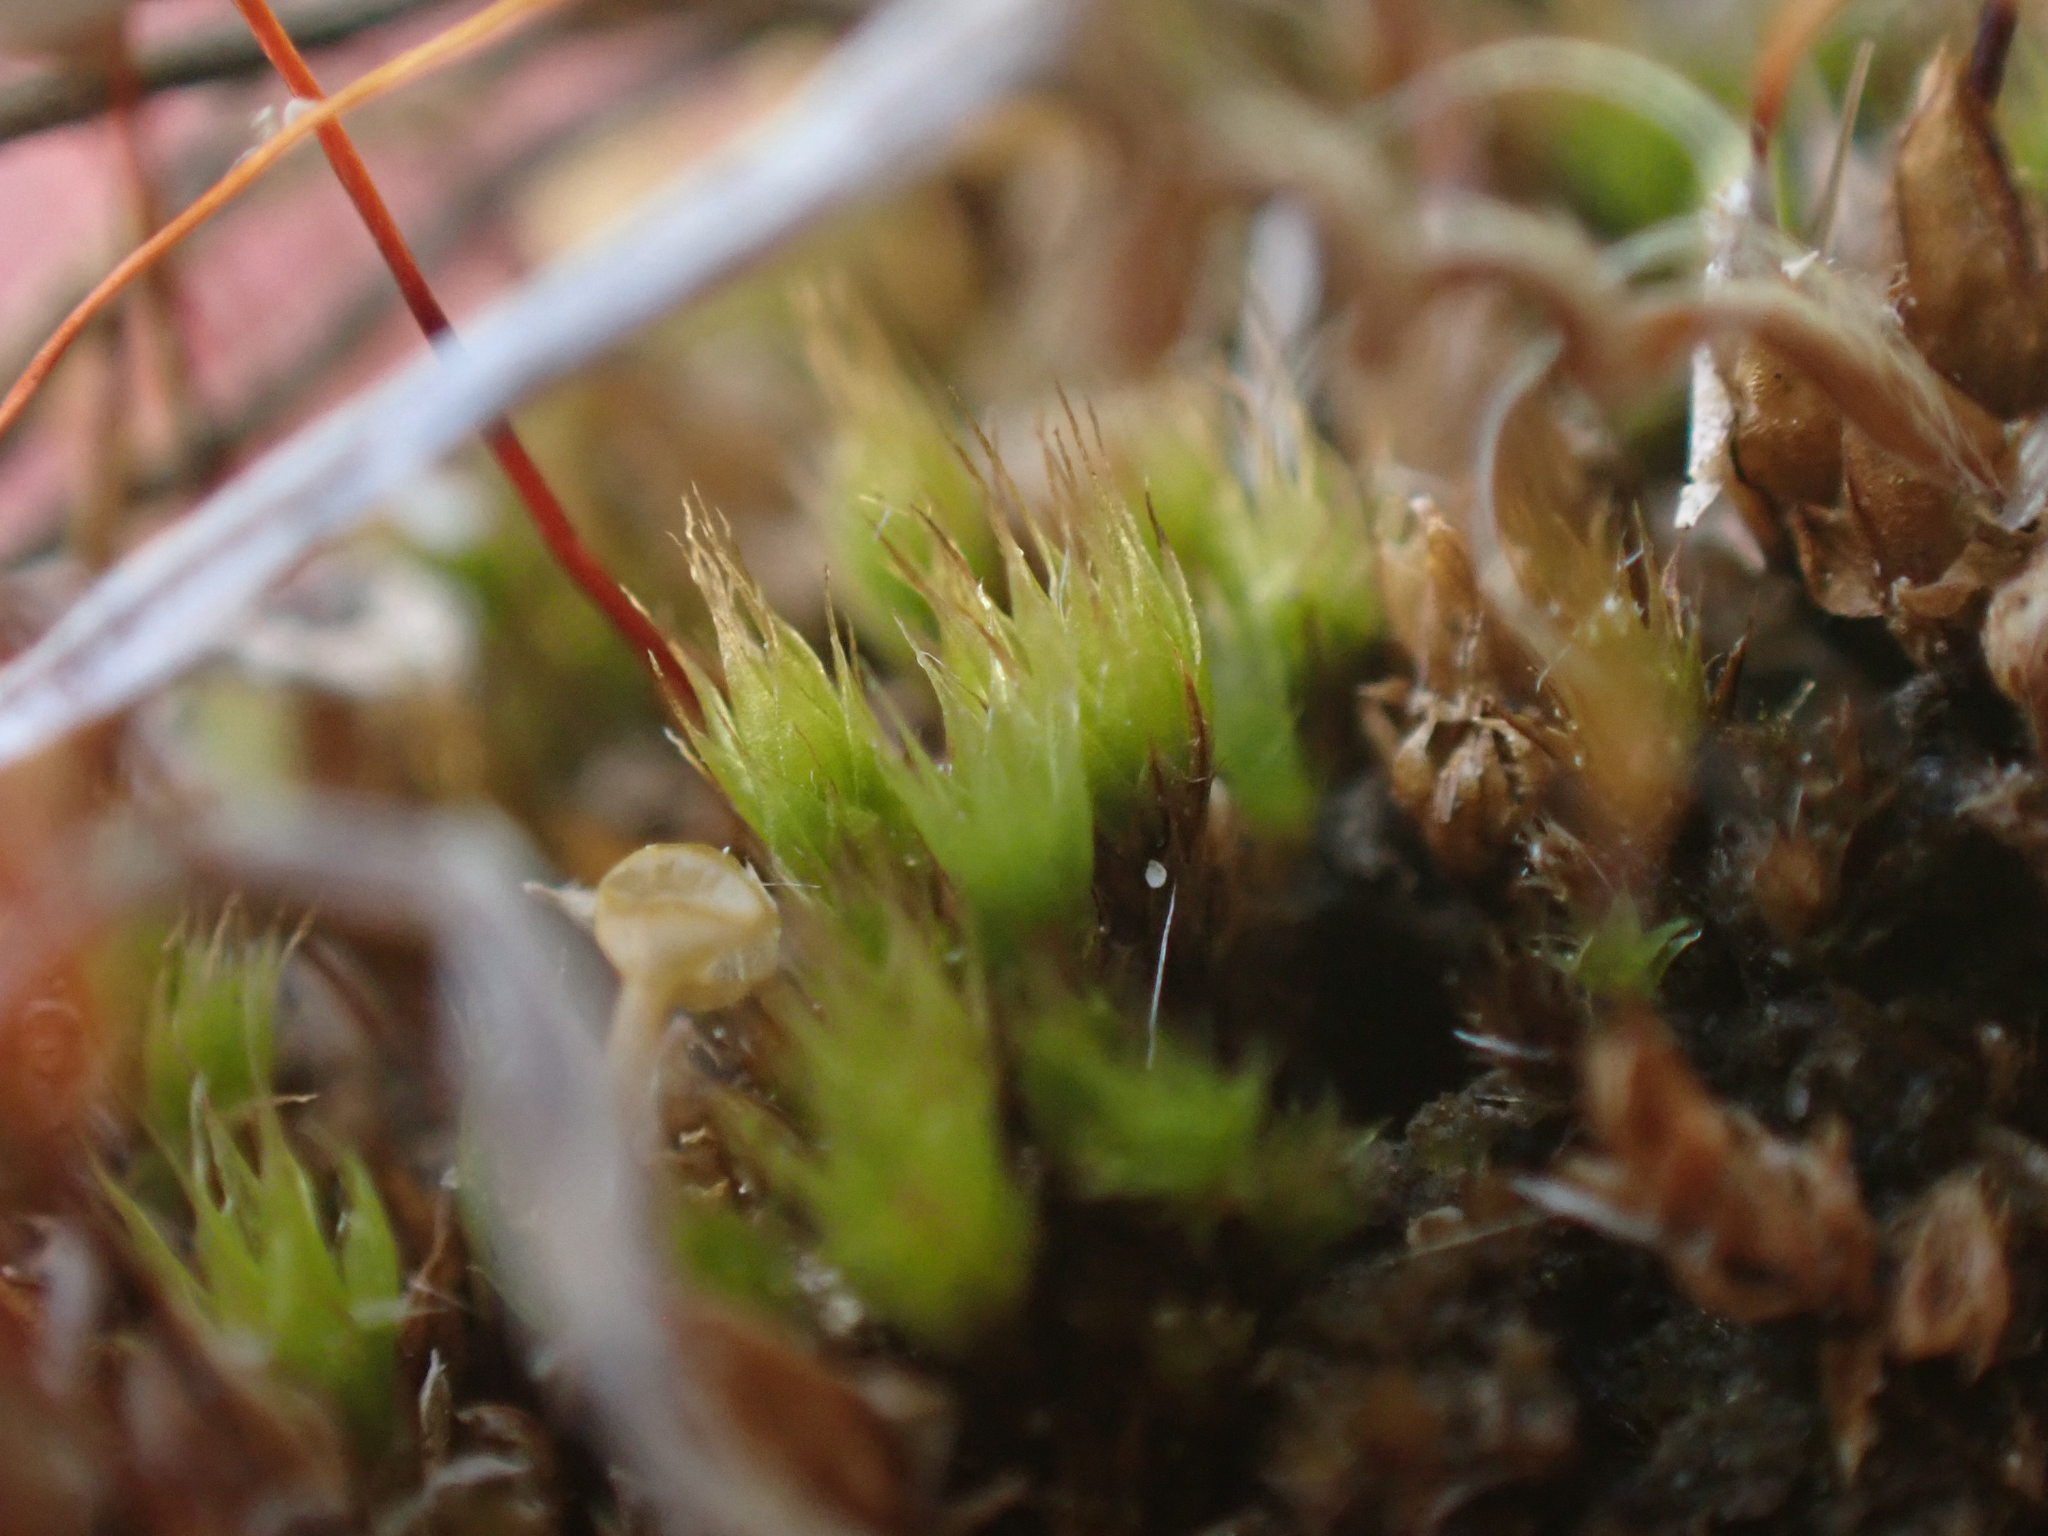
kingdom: Plantae
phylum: Bryophyta
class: Bryopsida
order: Funariales
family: Funariaceae
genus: Funaria
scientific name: Funaria hygrometrica
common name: Common cord moss
